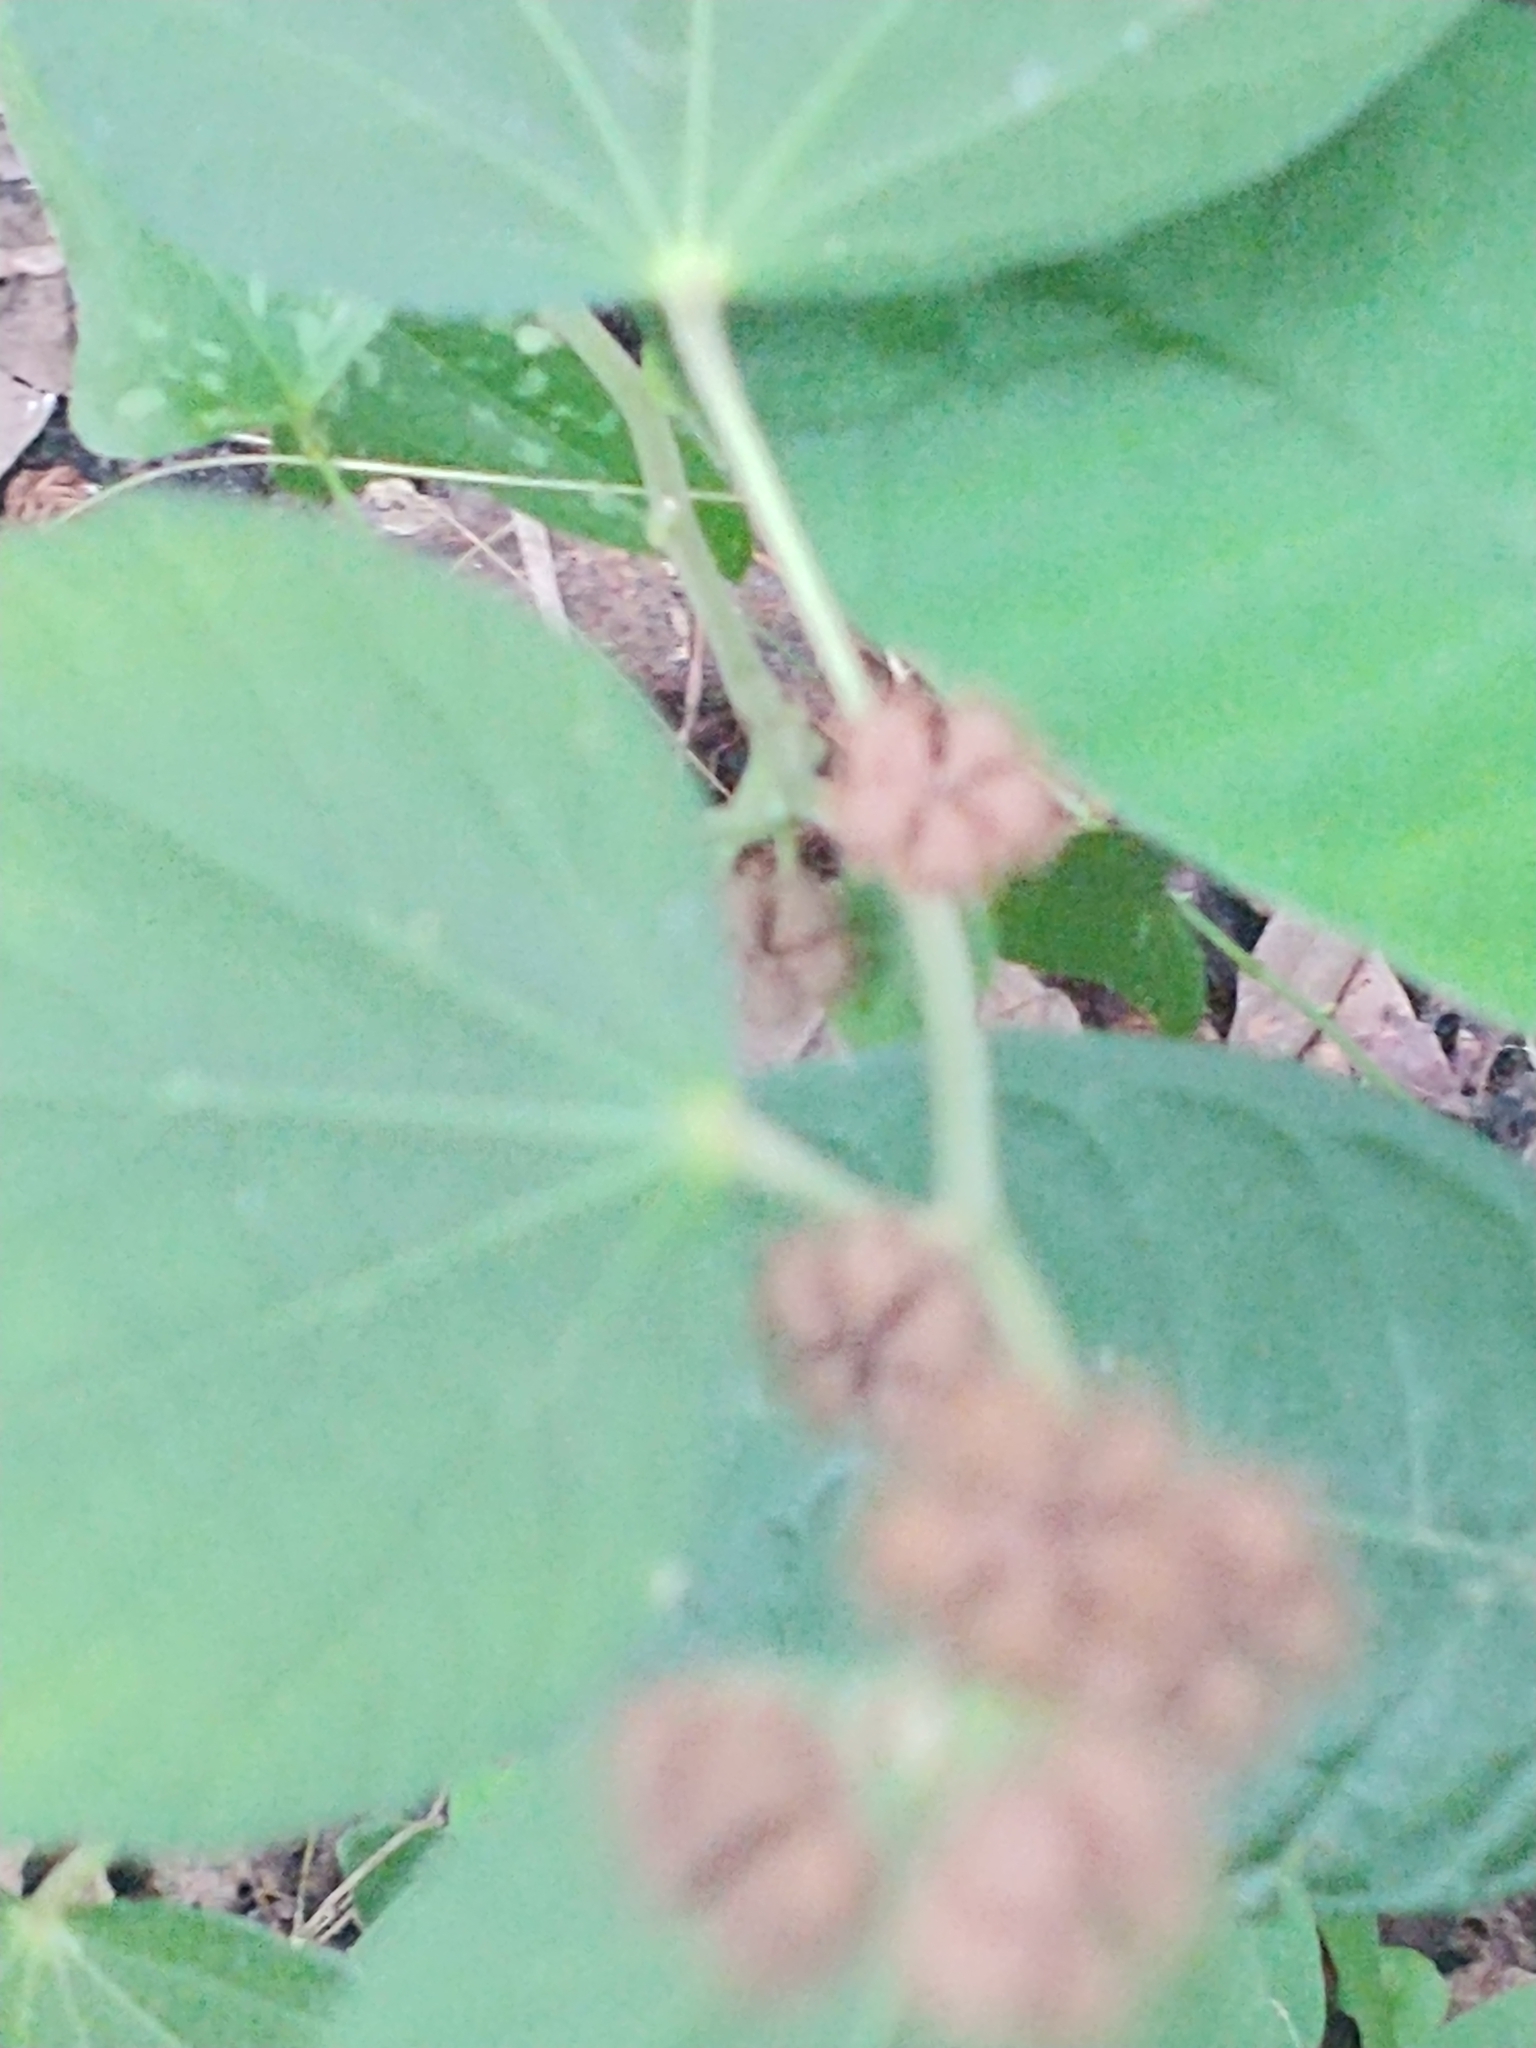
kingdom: Plantae
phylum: Tracheophyta
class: Magnoliopsida
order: Malvales
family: Malvaceae
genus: Urena
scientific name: Urena lobata
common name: Caesarweed
